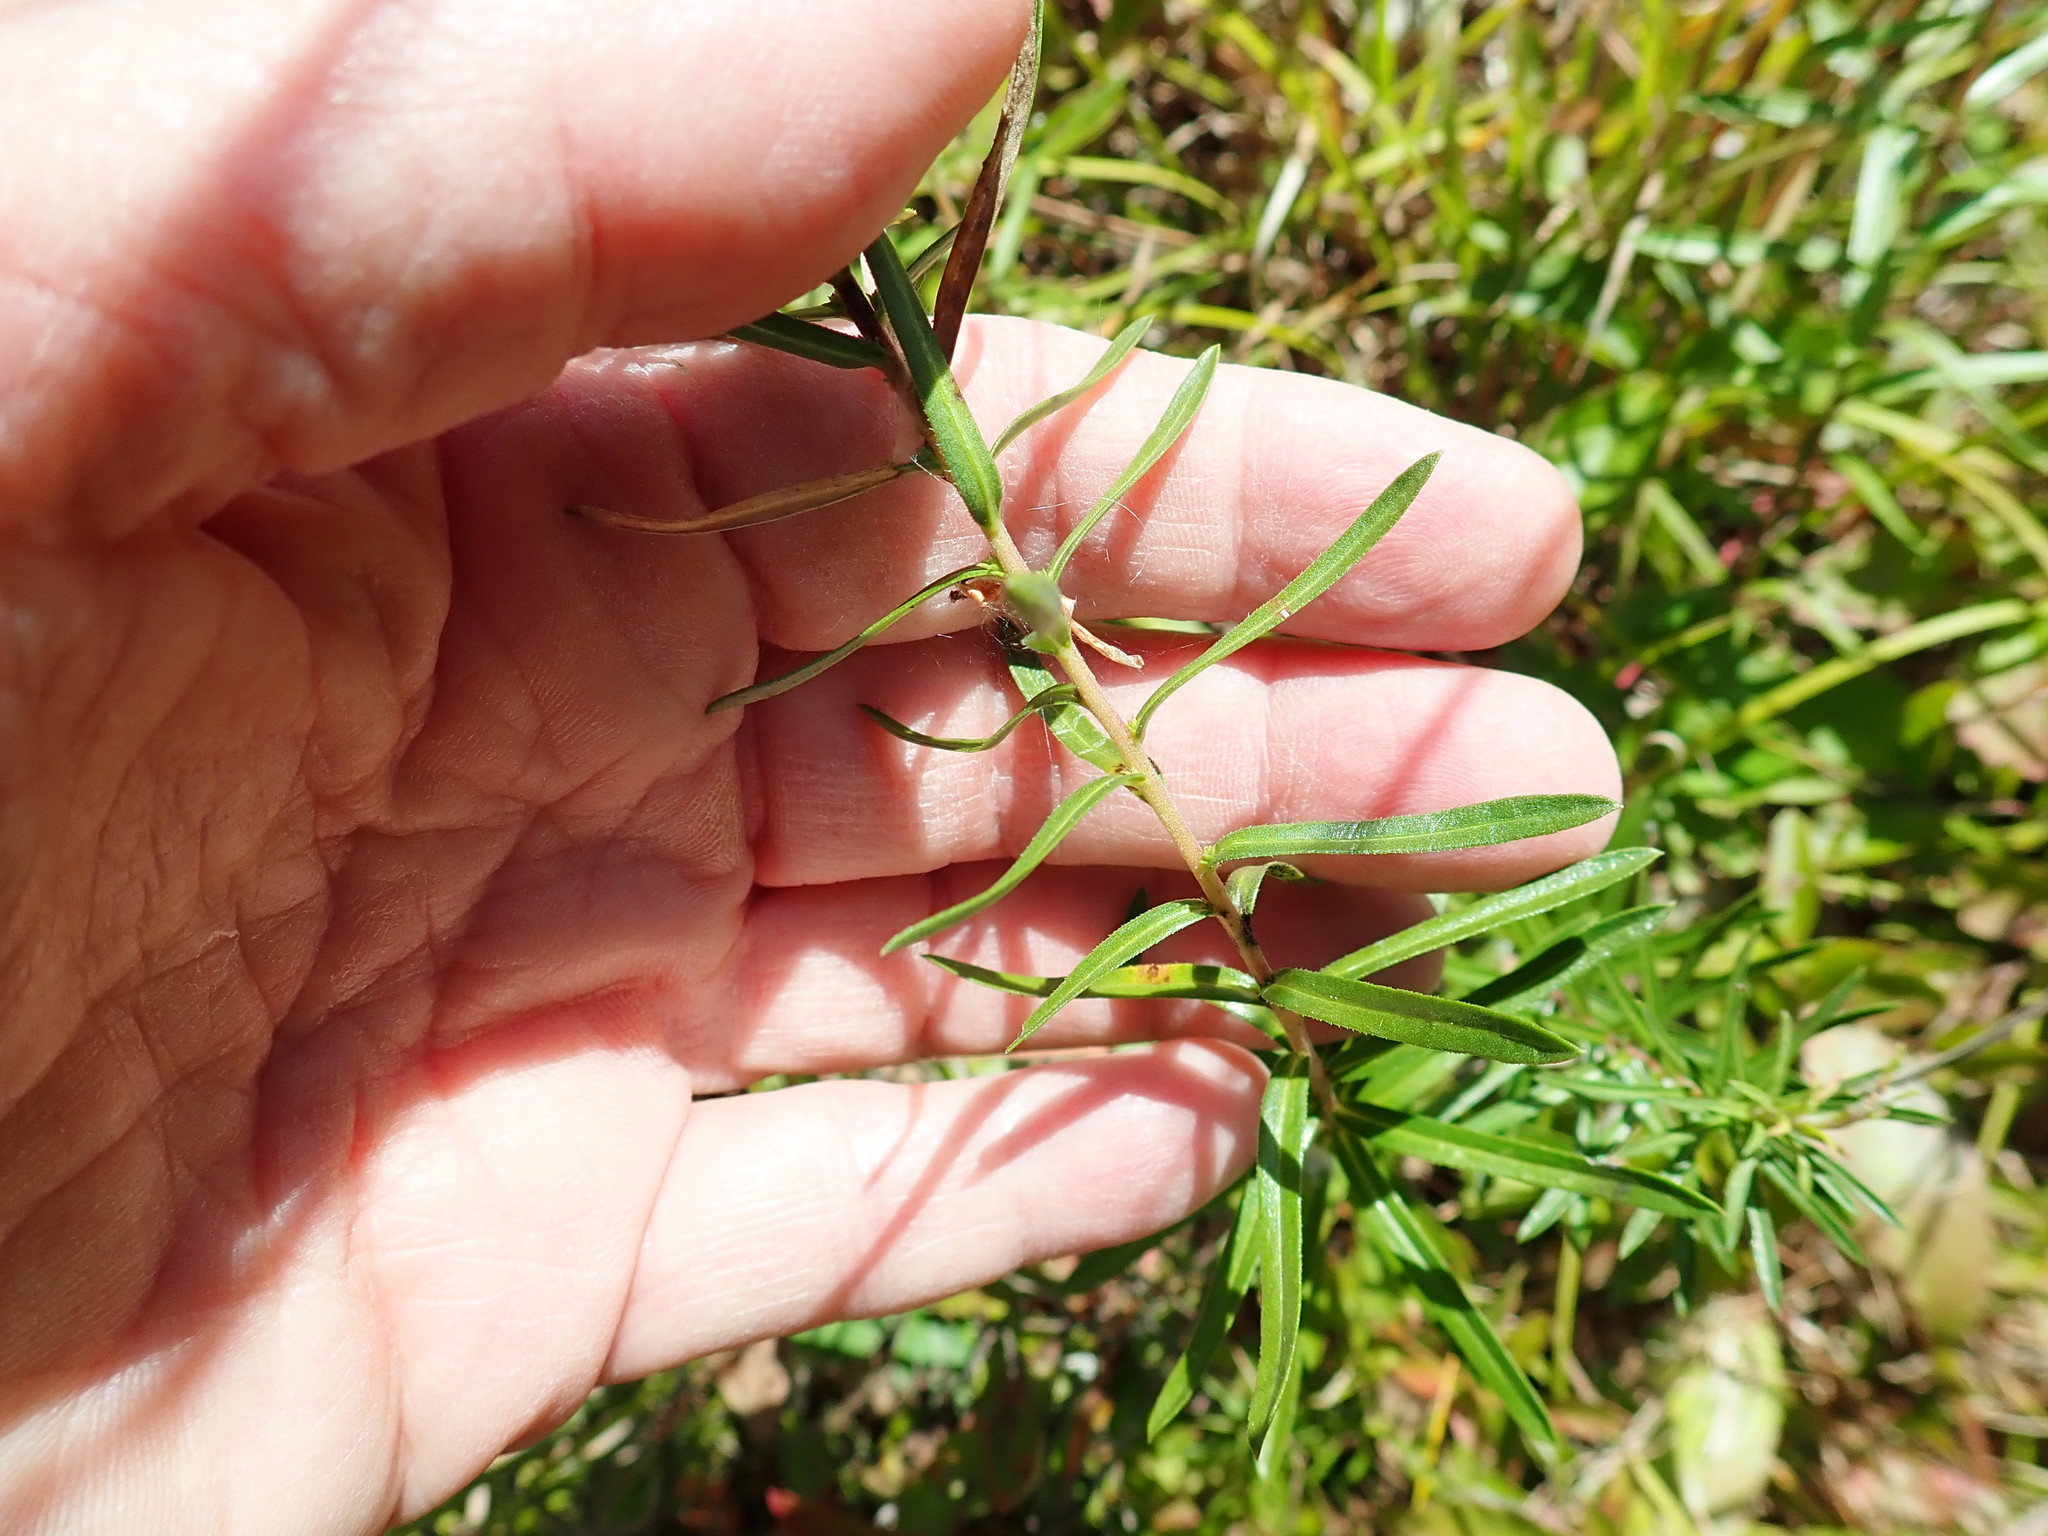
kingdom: Plantae
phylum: Tracheophyta
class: Magnoliopsida
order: Asterales
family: Asteraceae
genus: Ionactis
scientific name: Ionactis linariifolia
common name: Flax-leaf aster
